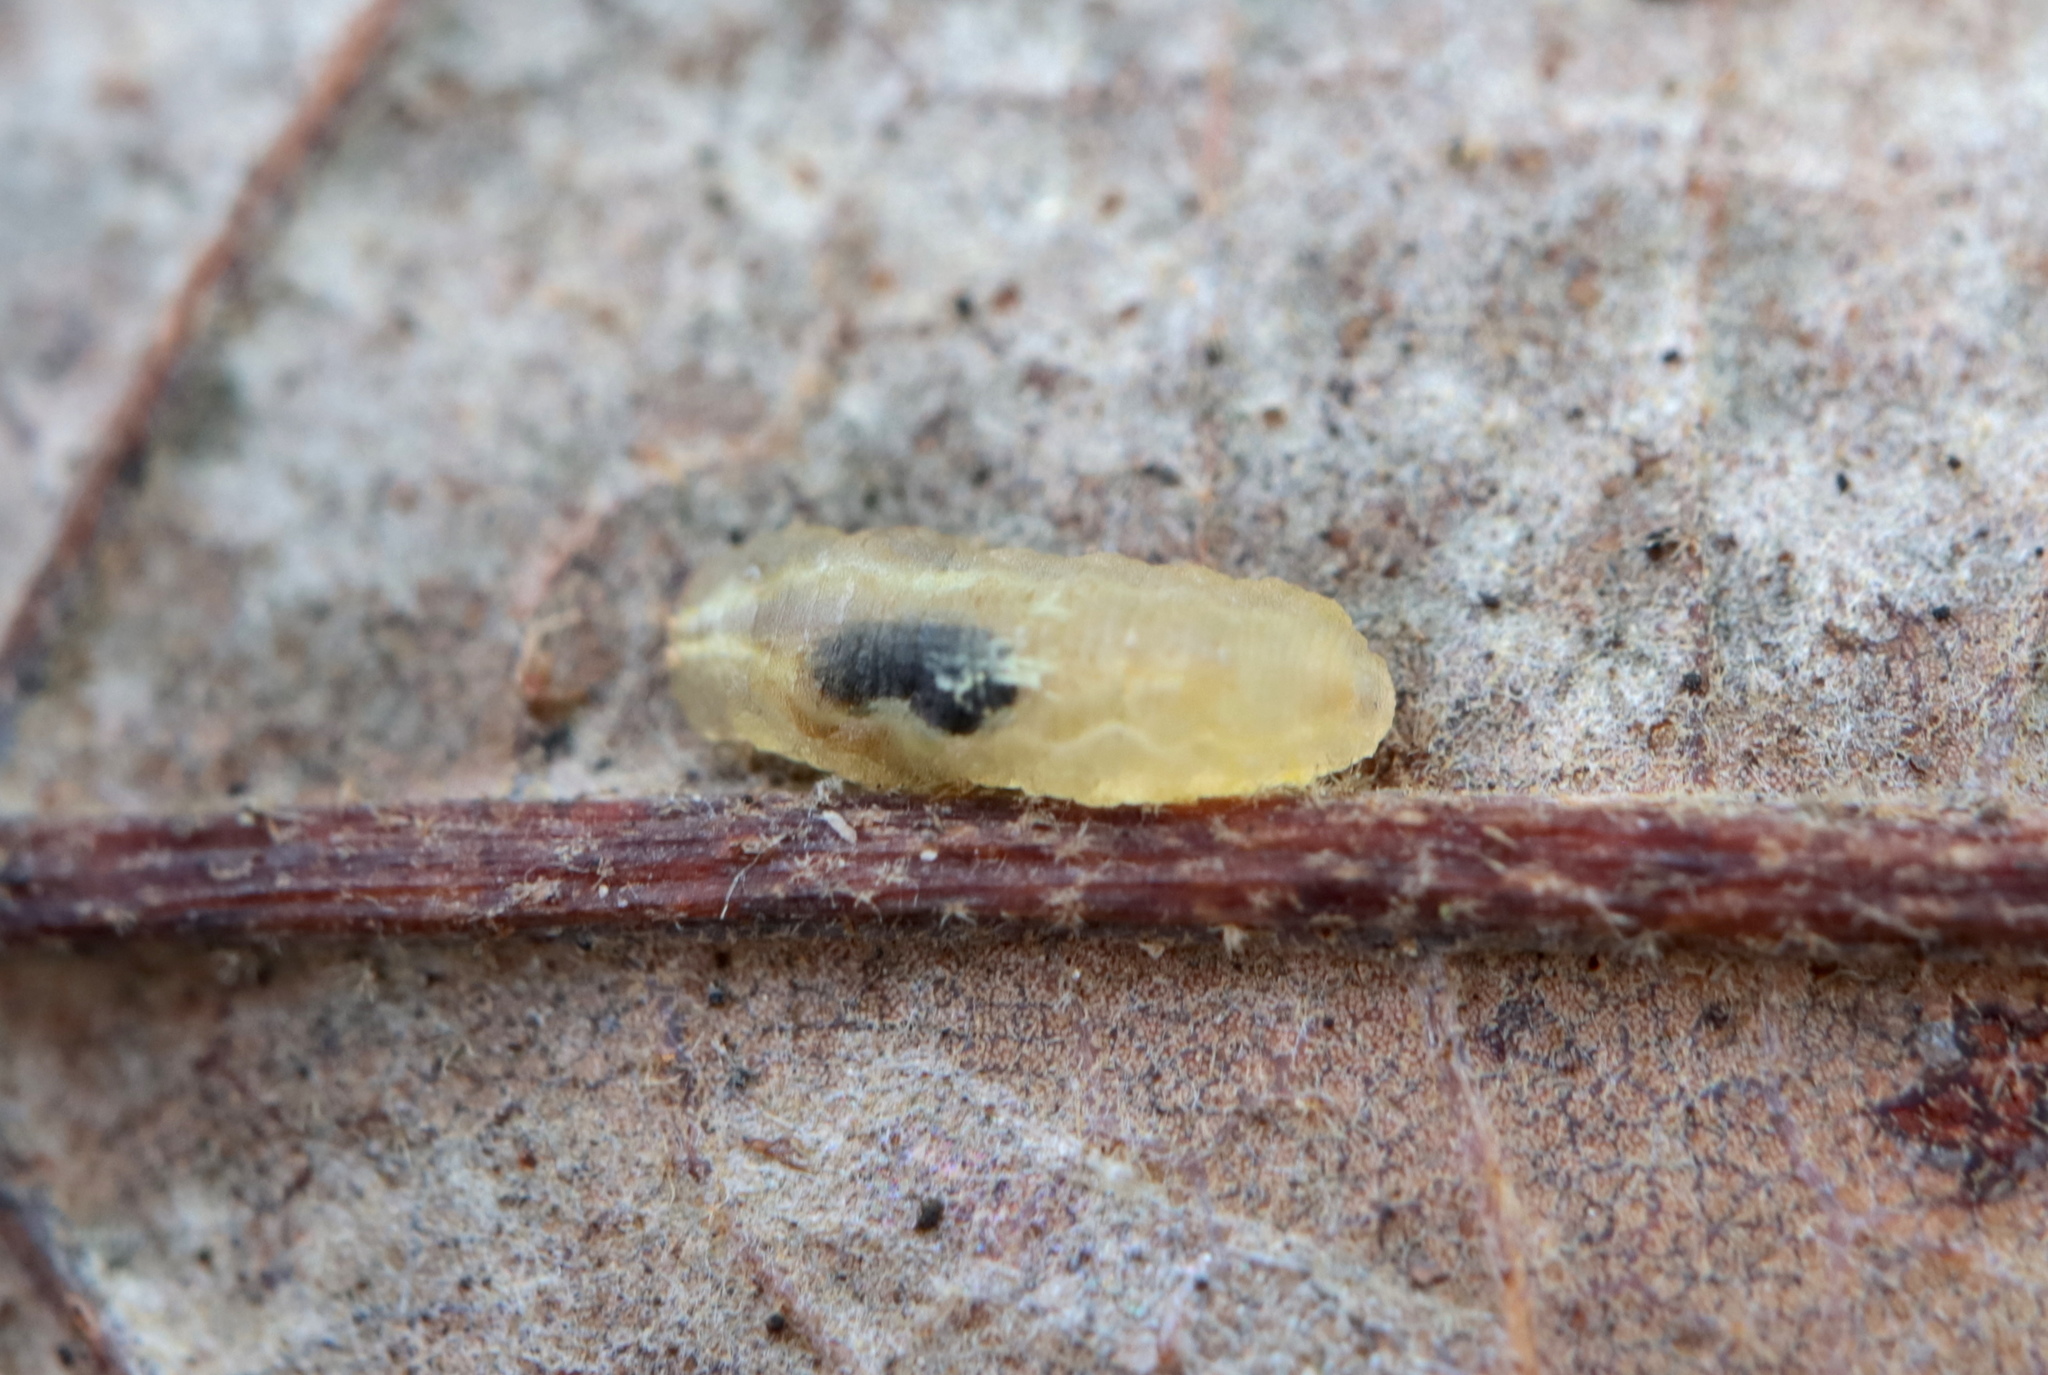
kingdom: Animalia
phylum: Arthropoda
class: Insecta
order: Diptera
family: Syrphidae
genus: Toxomerus
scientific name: Toxomerus
